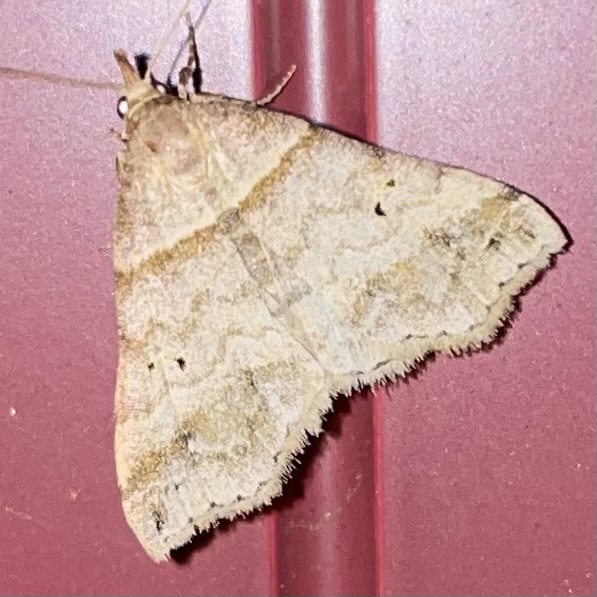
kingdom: Animalia
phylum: Arthropoda
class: Insecta
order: Lepidoptera
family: Erebidae
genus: Phaeolita
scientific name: Phaeolita pyramusalis
